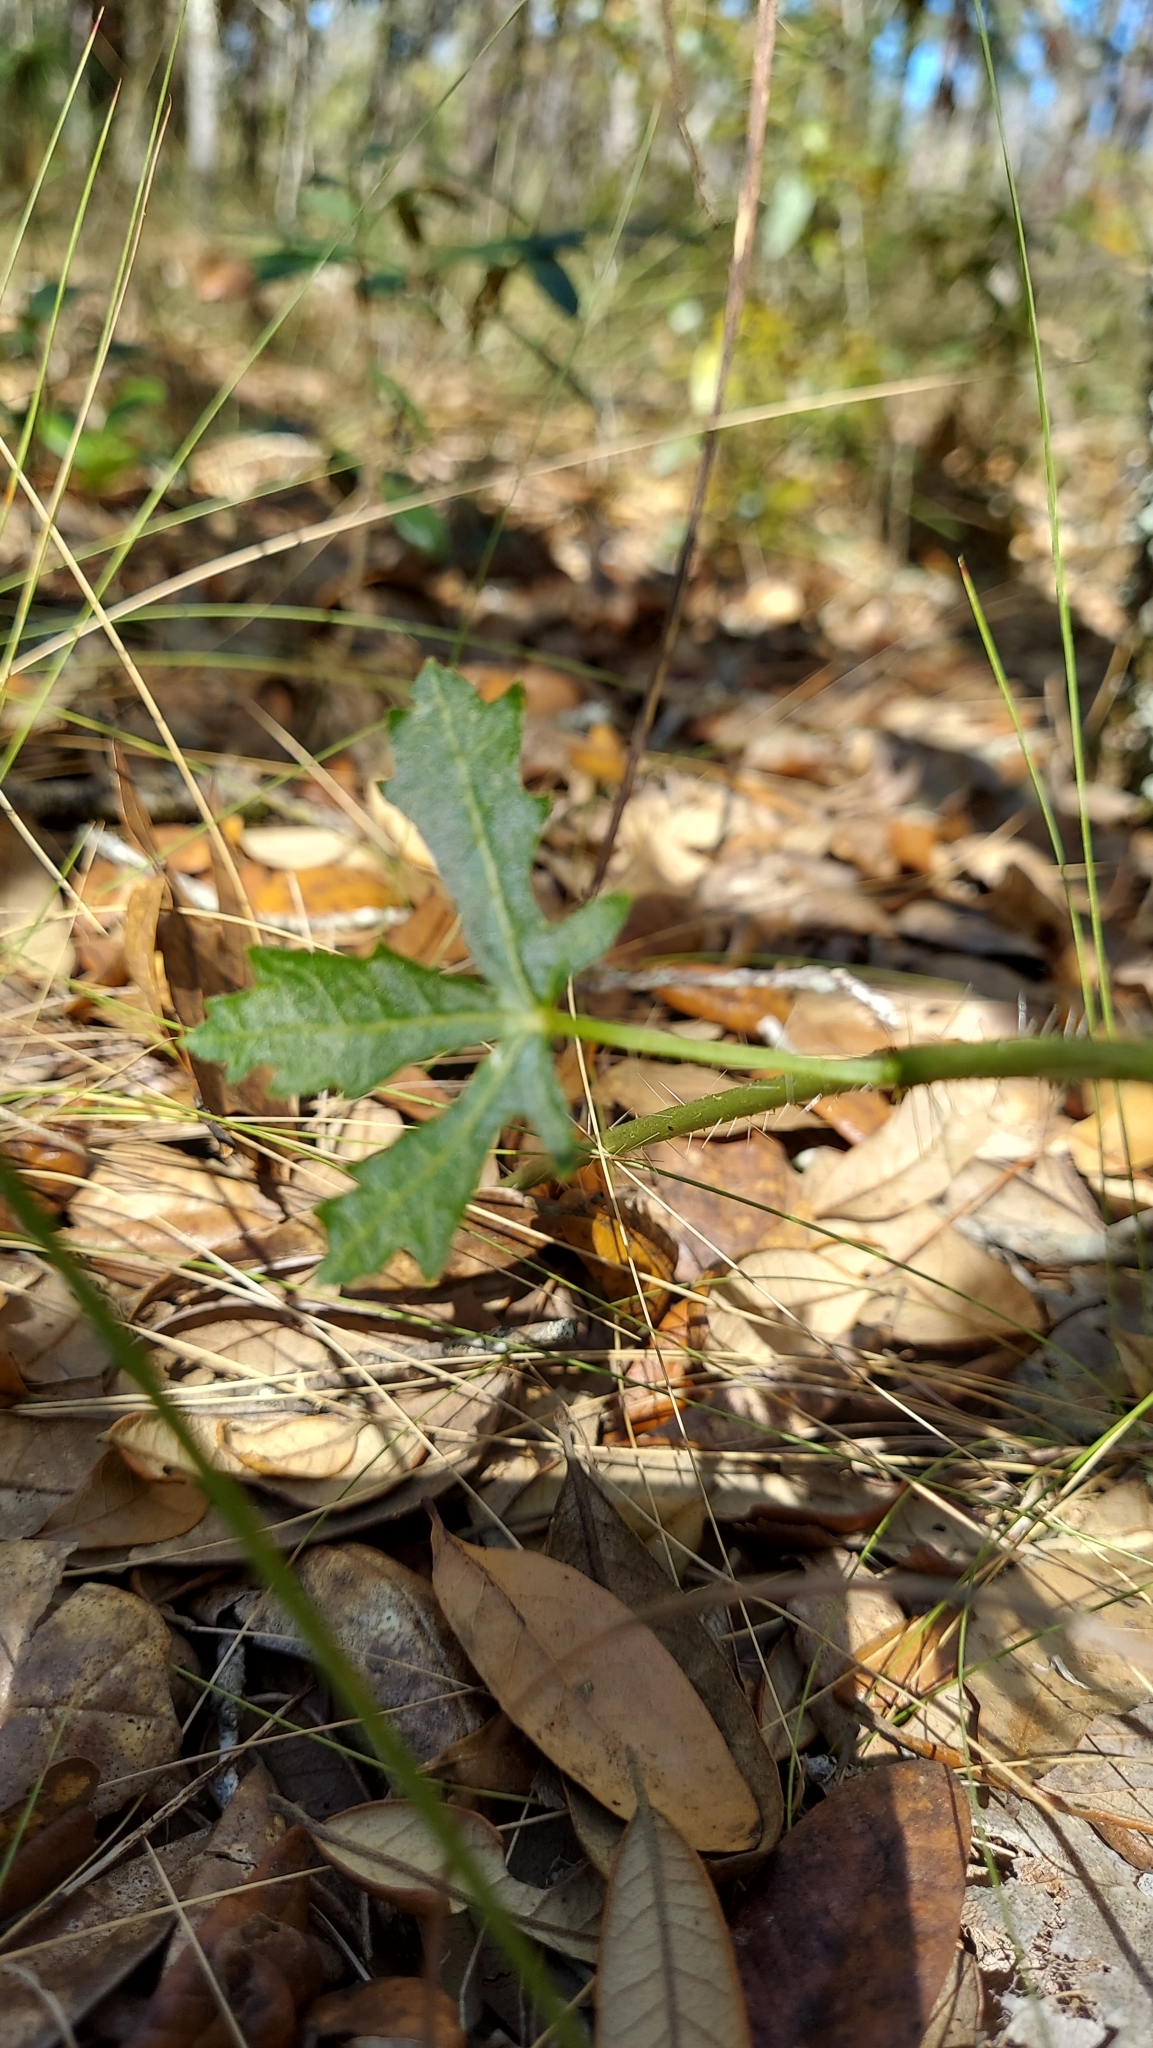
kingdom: Plantae
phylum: Tracheophyta
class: Magnoliopsida
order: Malpighiales
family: Euphorbiaceae
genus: Cnidoscolus
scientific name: Cnidoscolus stimulosus
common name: Bull-nettle
